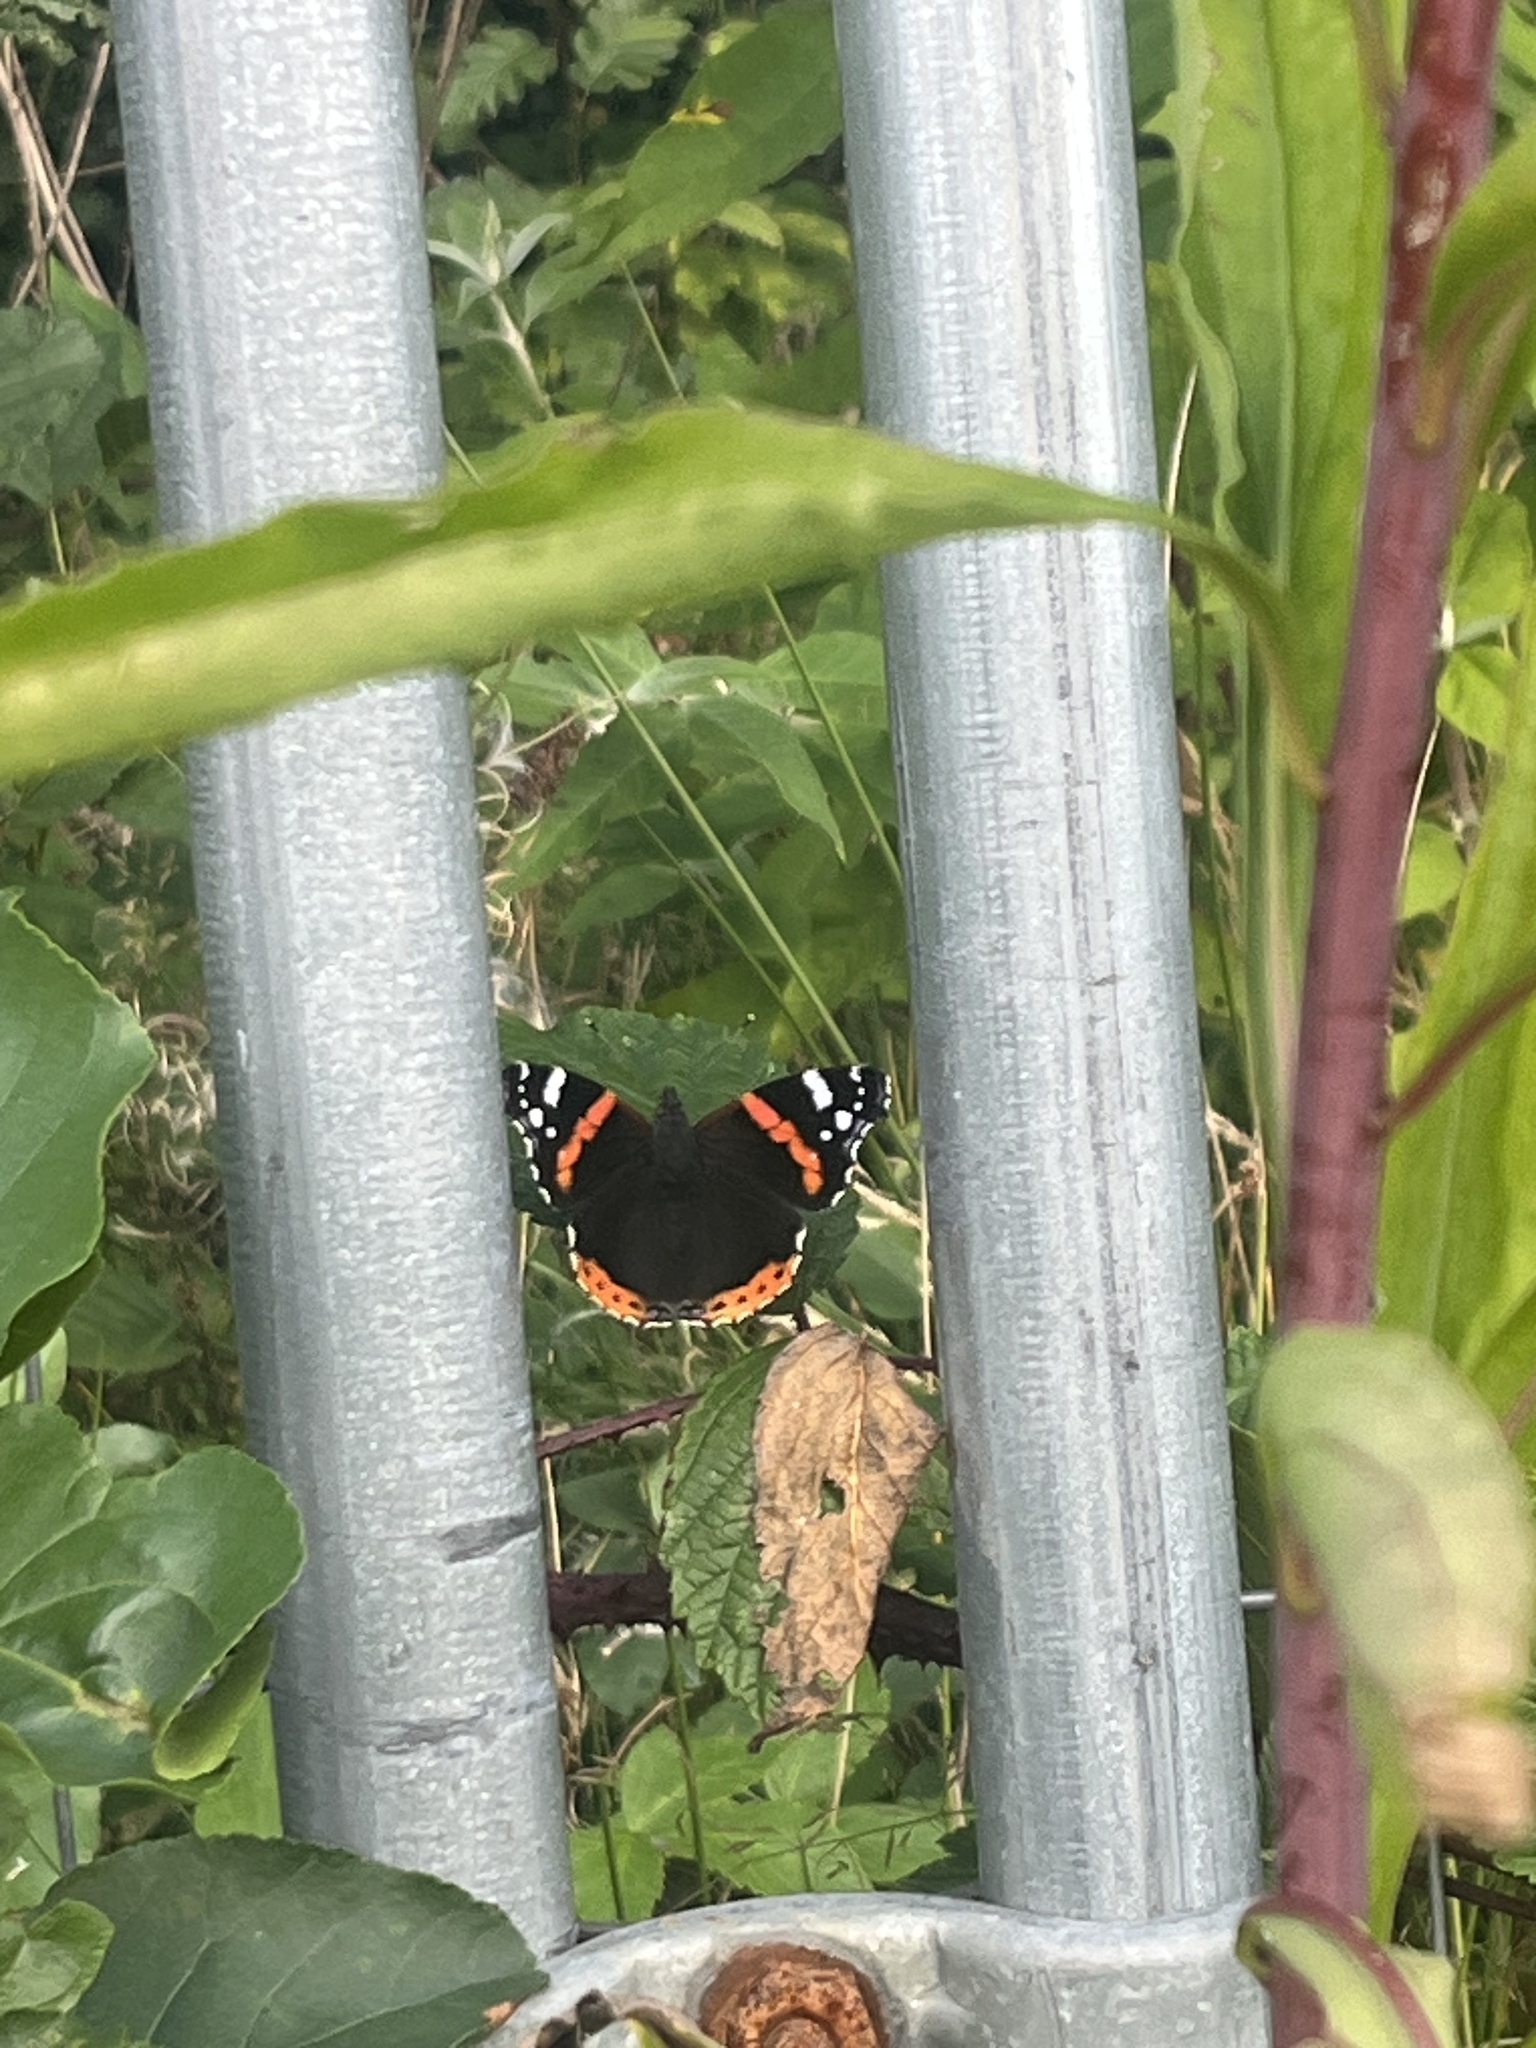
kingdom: Animalia
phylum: Arthropoda
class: Insecta
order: Lepidoptera
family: Nymphalidae
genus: Vanessa
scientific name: Vanessa atalanta
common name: Red admiral
